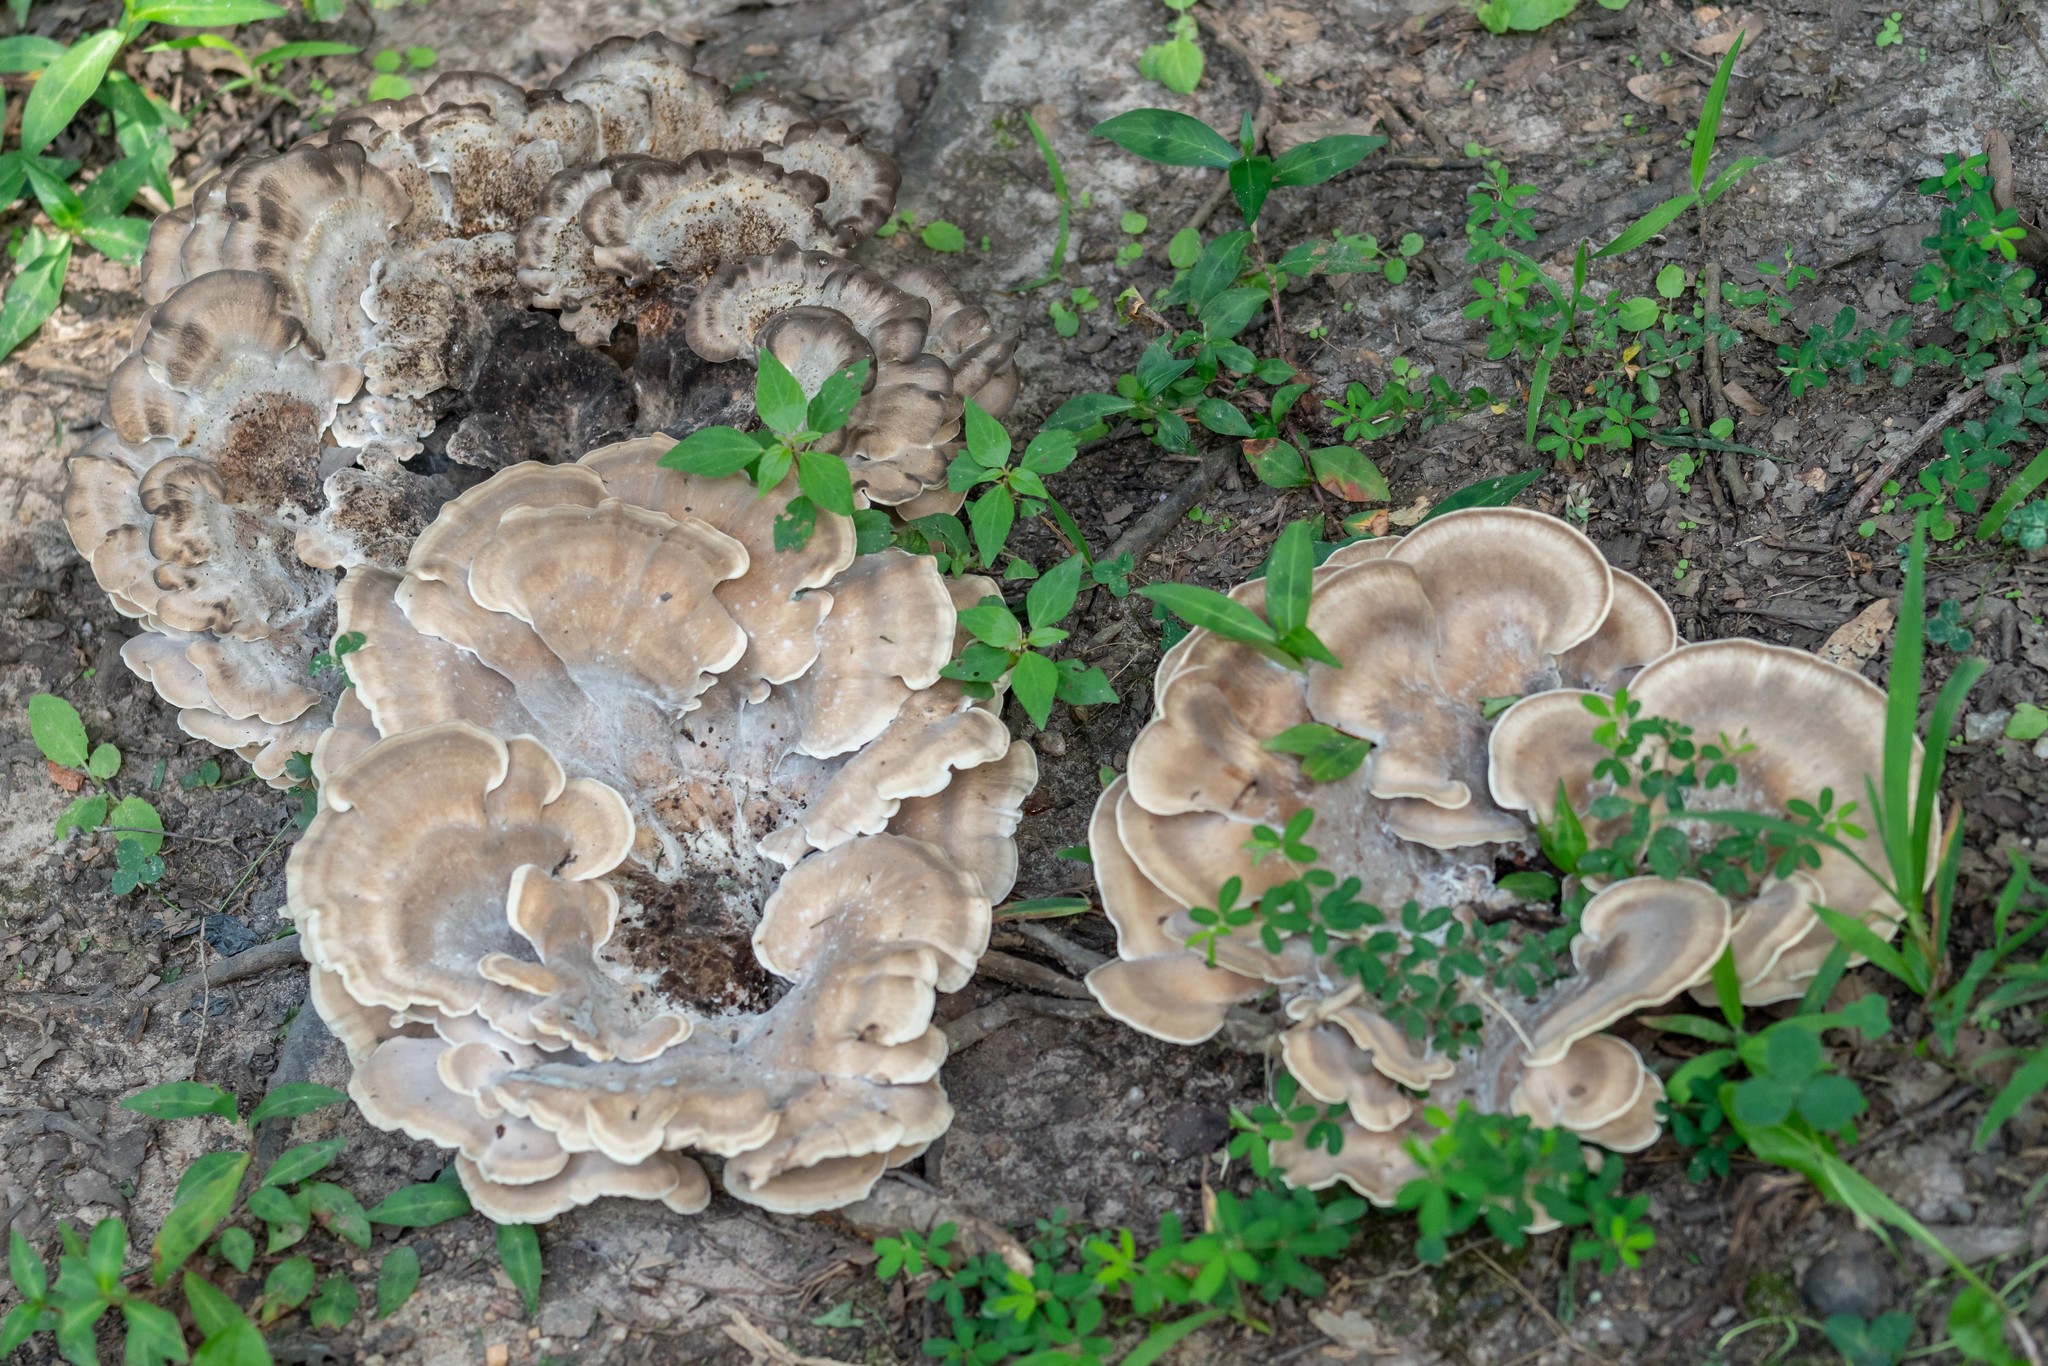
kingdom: Fungi
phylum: Basidiomycota
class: Agaricomycetes
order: Polyporales
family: Meripilaceae
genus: Meripilus
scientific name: Meripilus sumstinei
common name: Black-staining polypore
